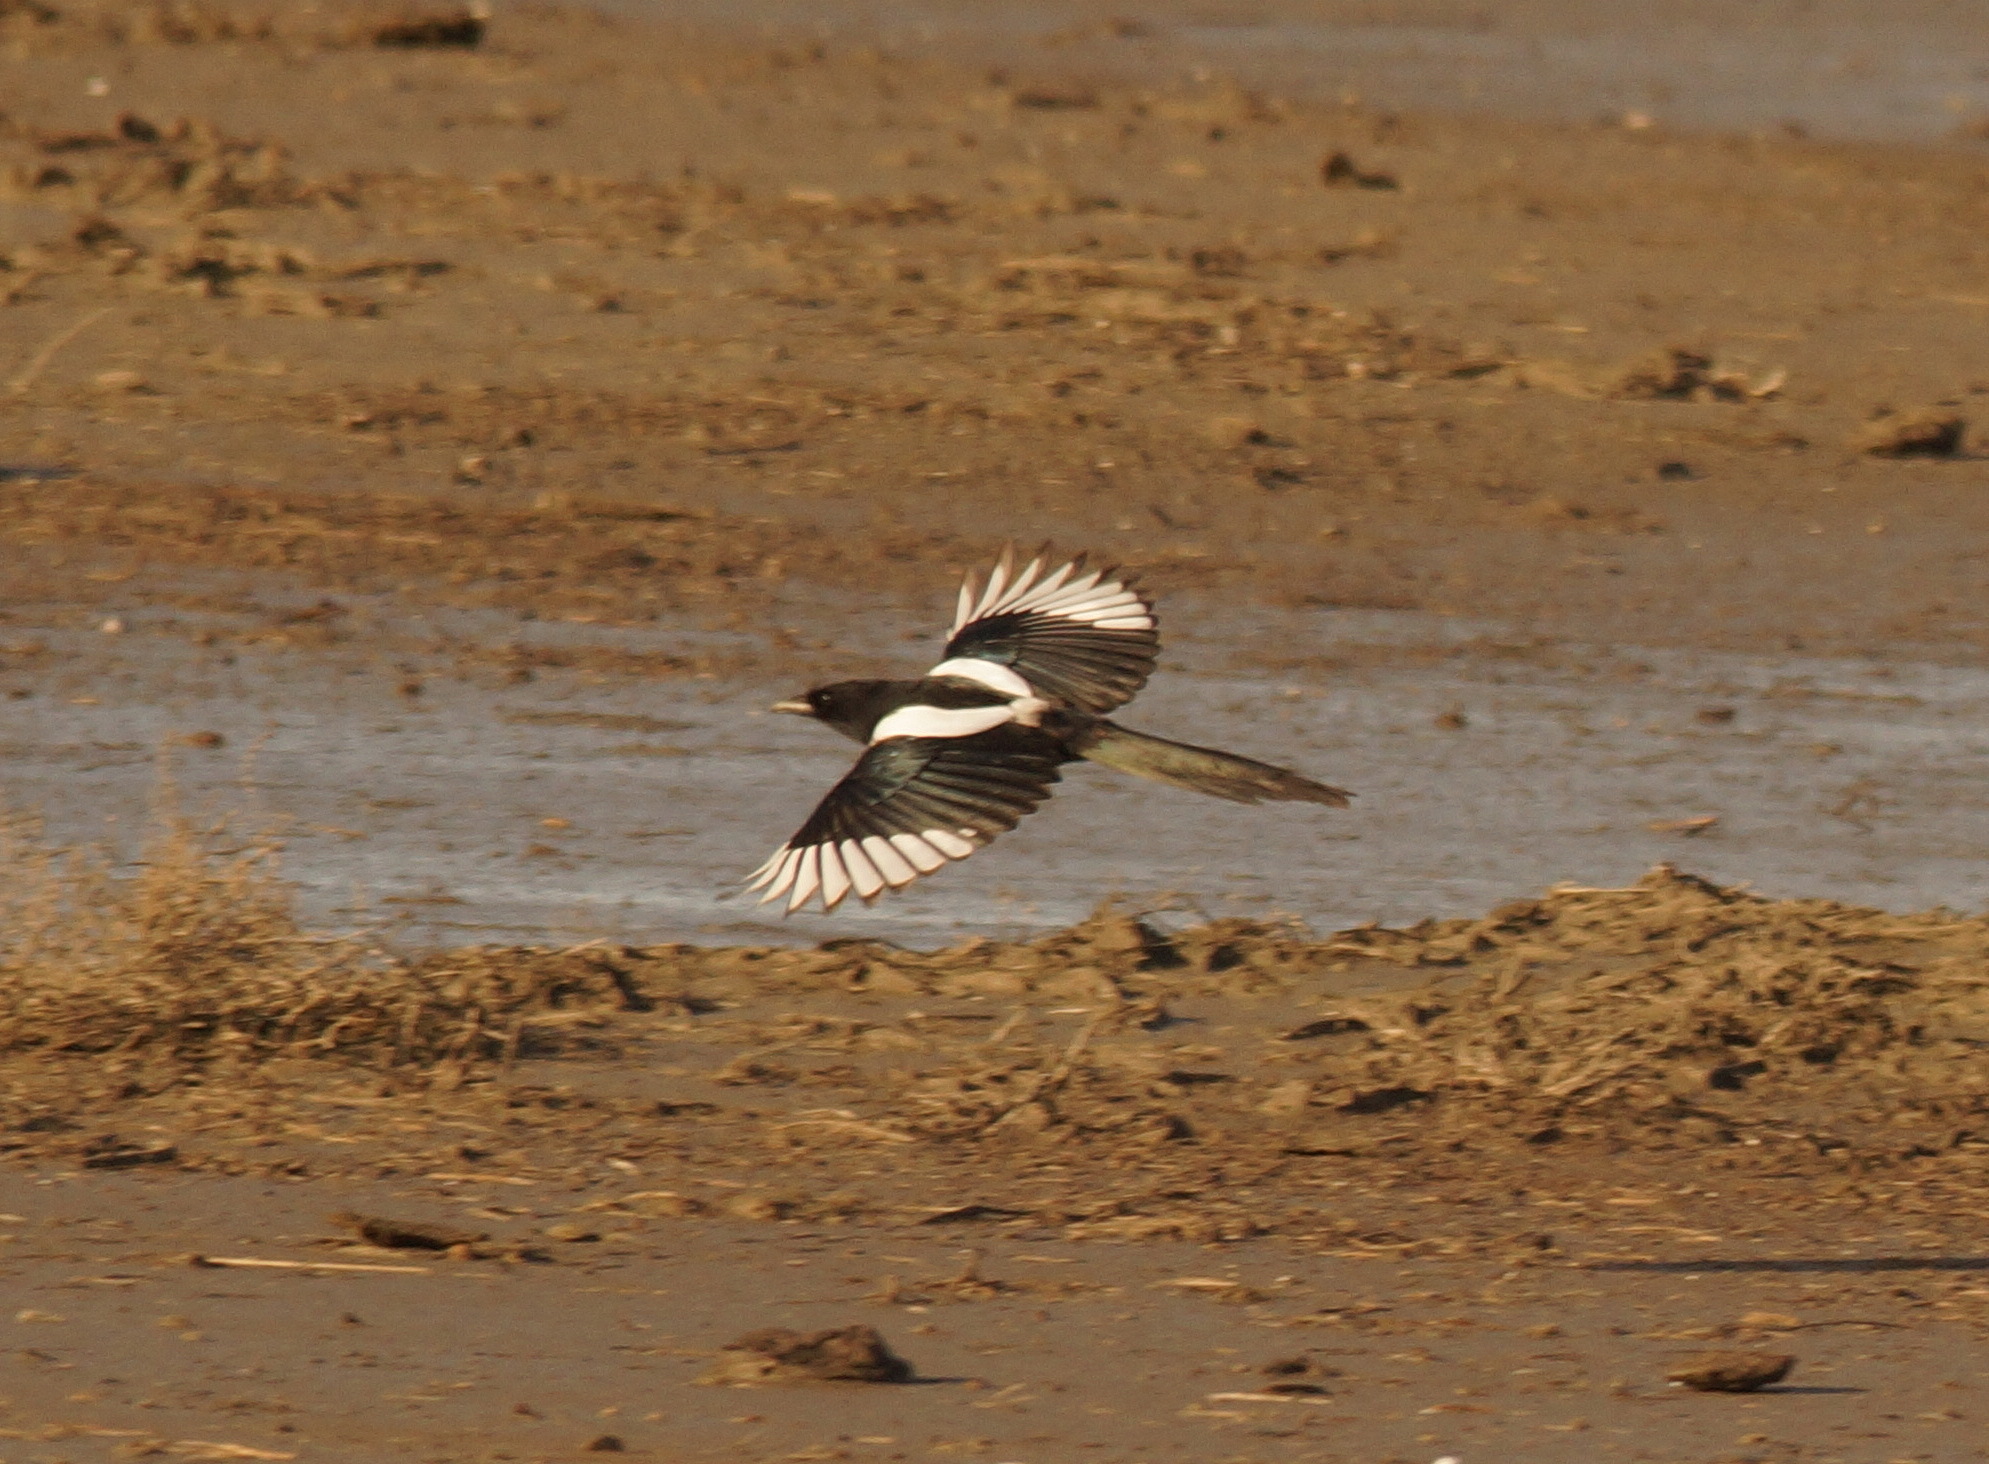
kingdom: Animalia
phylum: Chordata
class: Aves
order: Passeriformes
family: Corvidae
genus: Pica
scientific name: Pica pica
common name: Eurasian magpie
